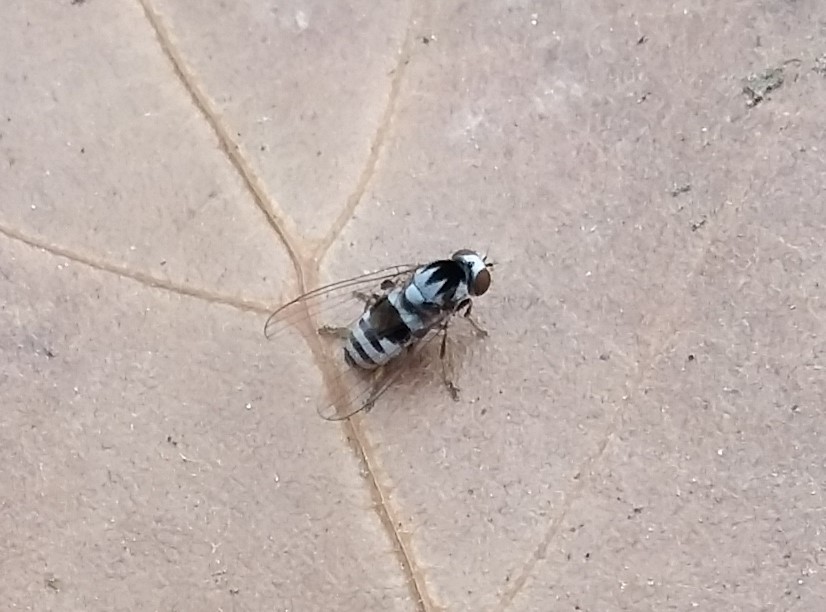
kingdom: Animalia
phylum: Arthropoda
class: Insecta
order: Diptera
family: Platypezidae
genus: Polyporivora
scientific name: Polyporivora polypori
